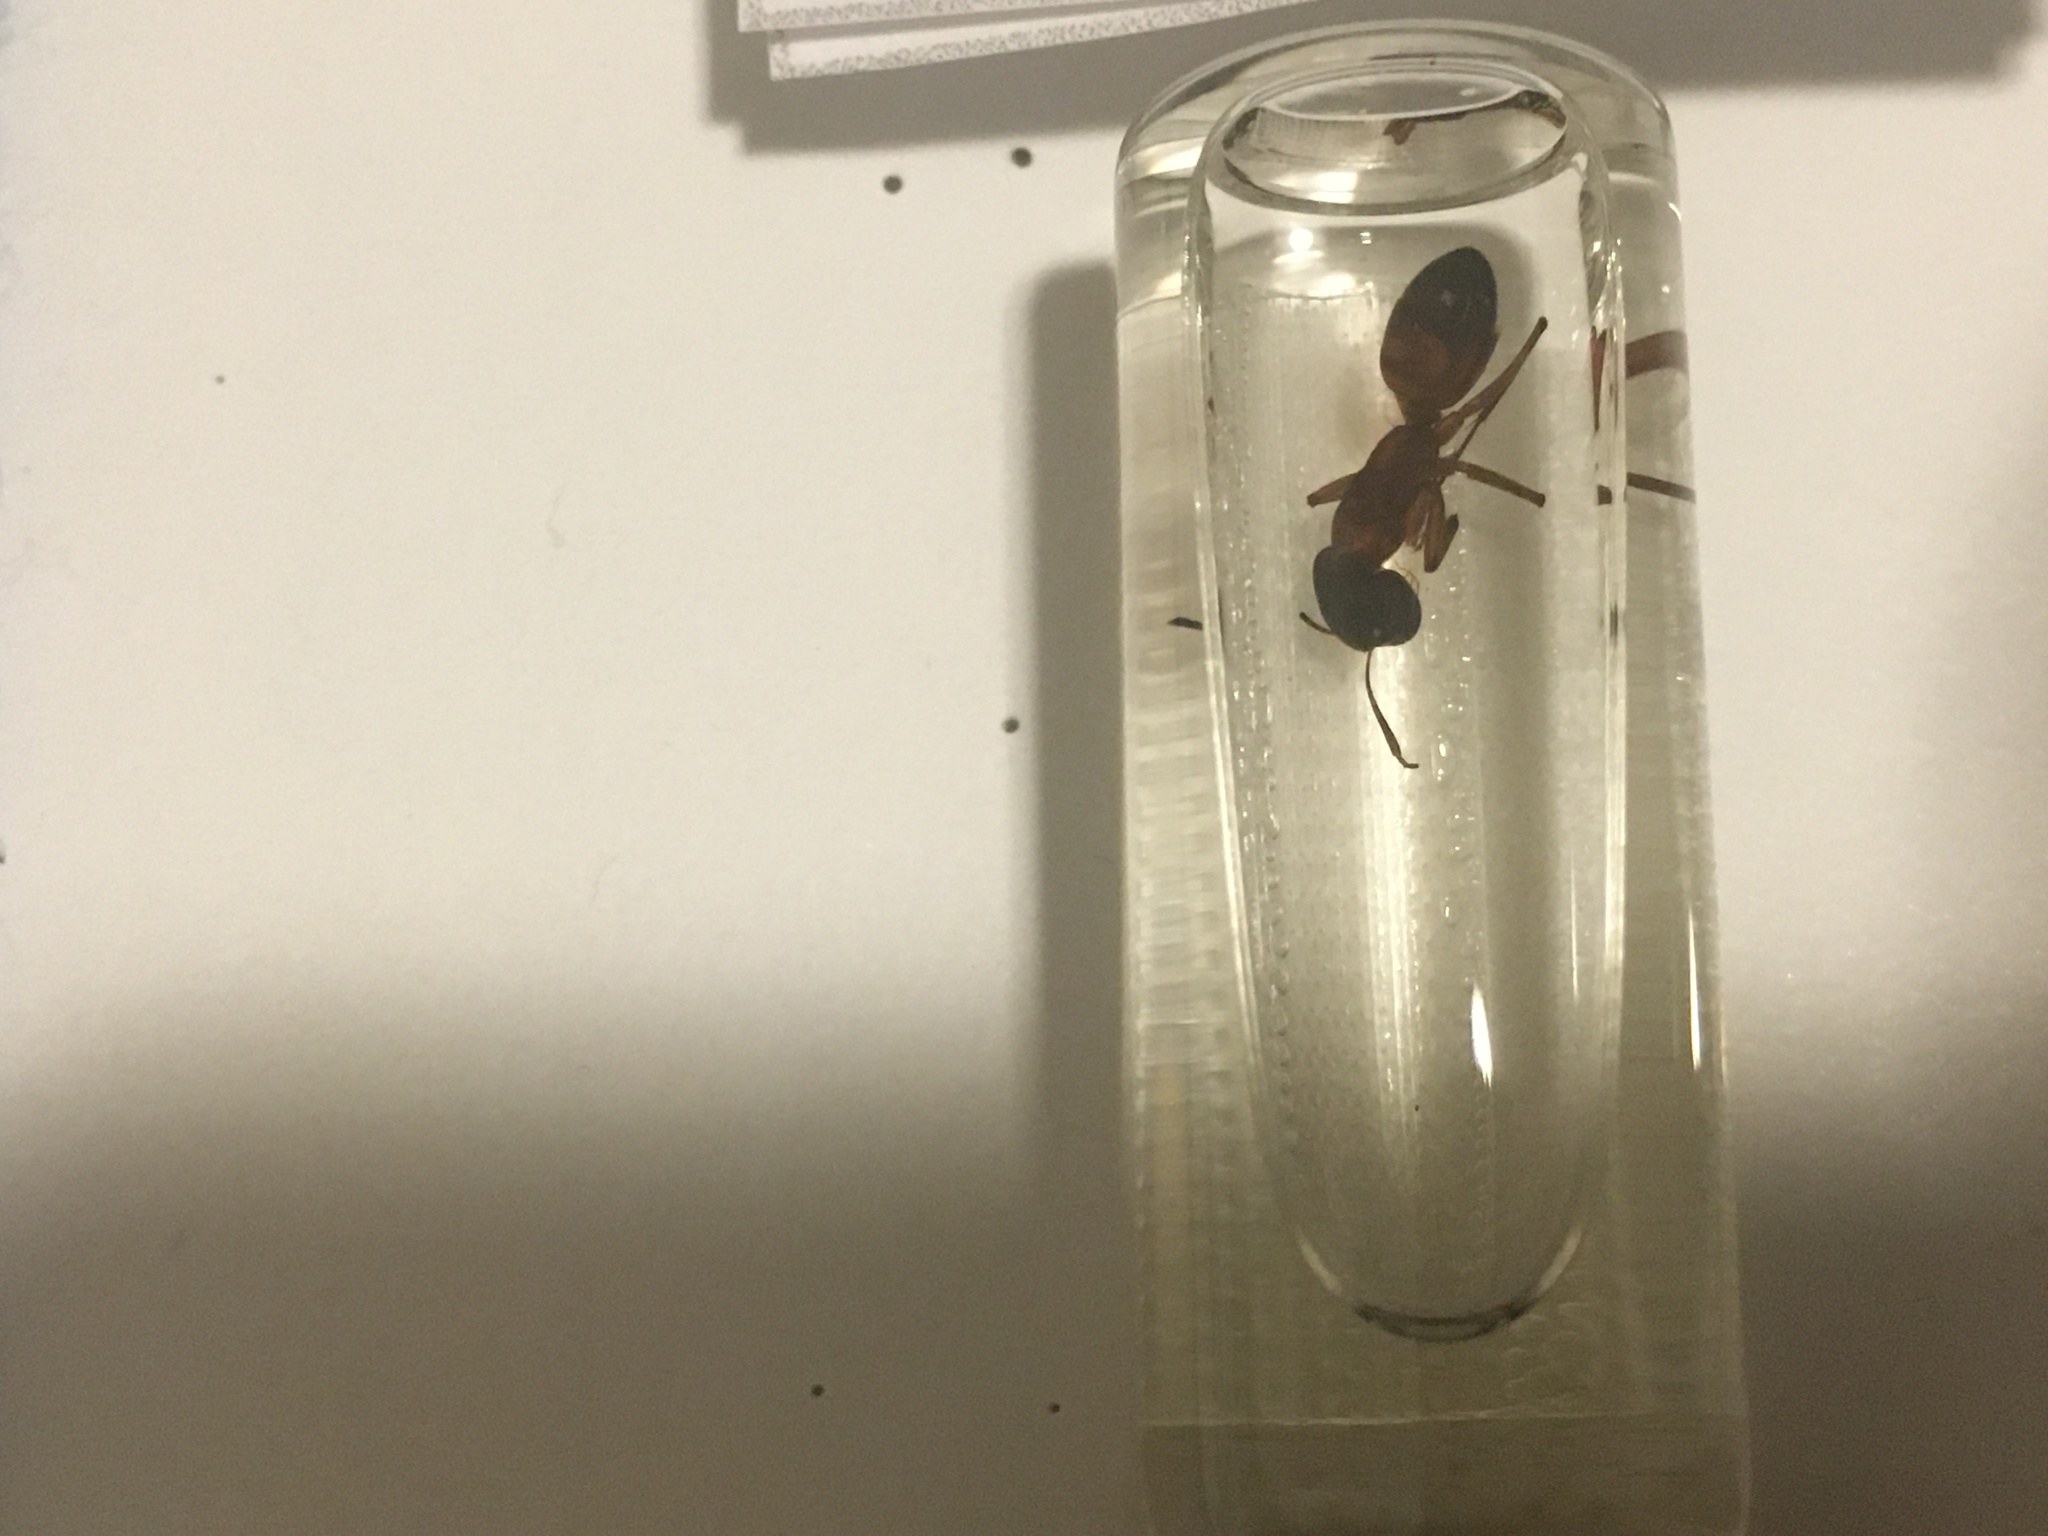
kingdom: Animalia
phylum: Arthropoda
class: Insecta
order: Hymenoptera
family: Formicidae
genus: Camponotus
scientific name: Camponotus americanus
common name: American carpenter ant
